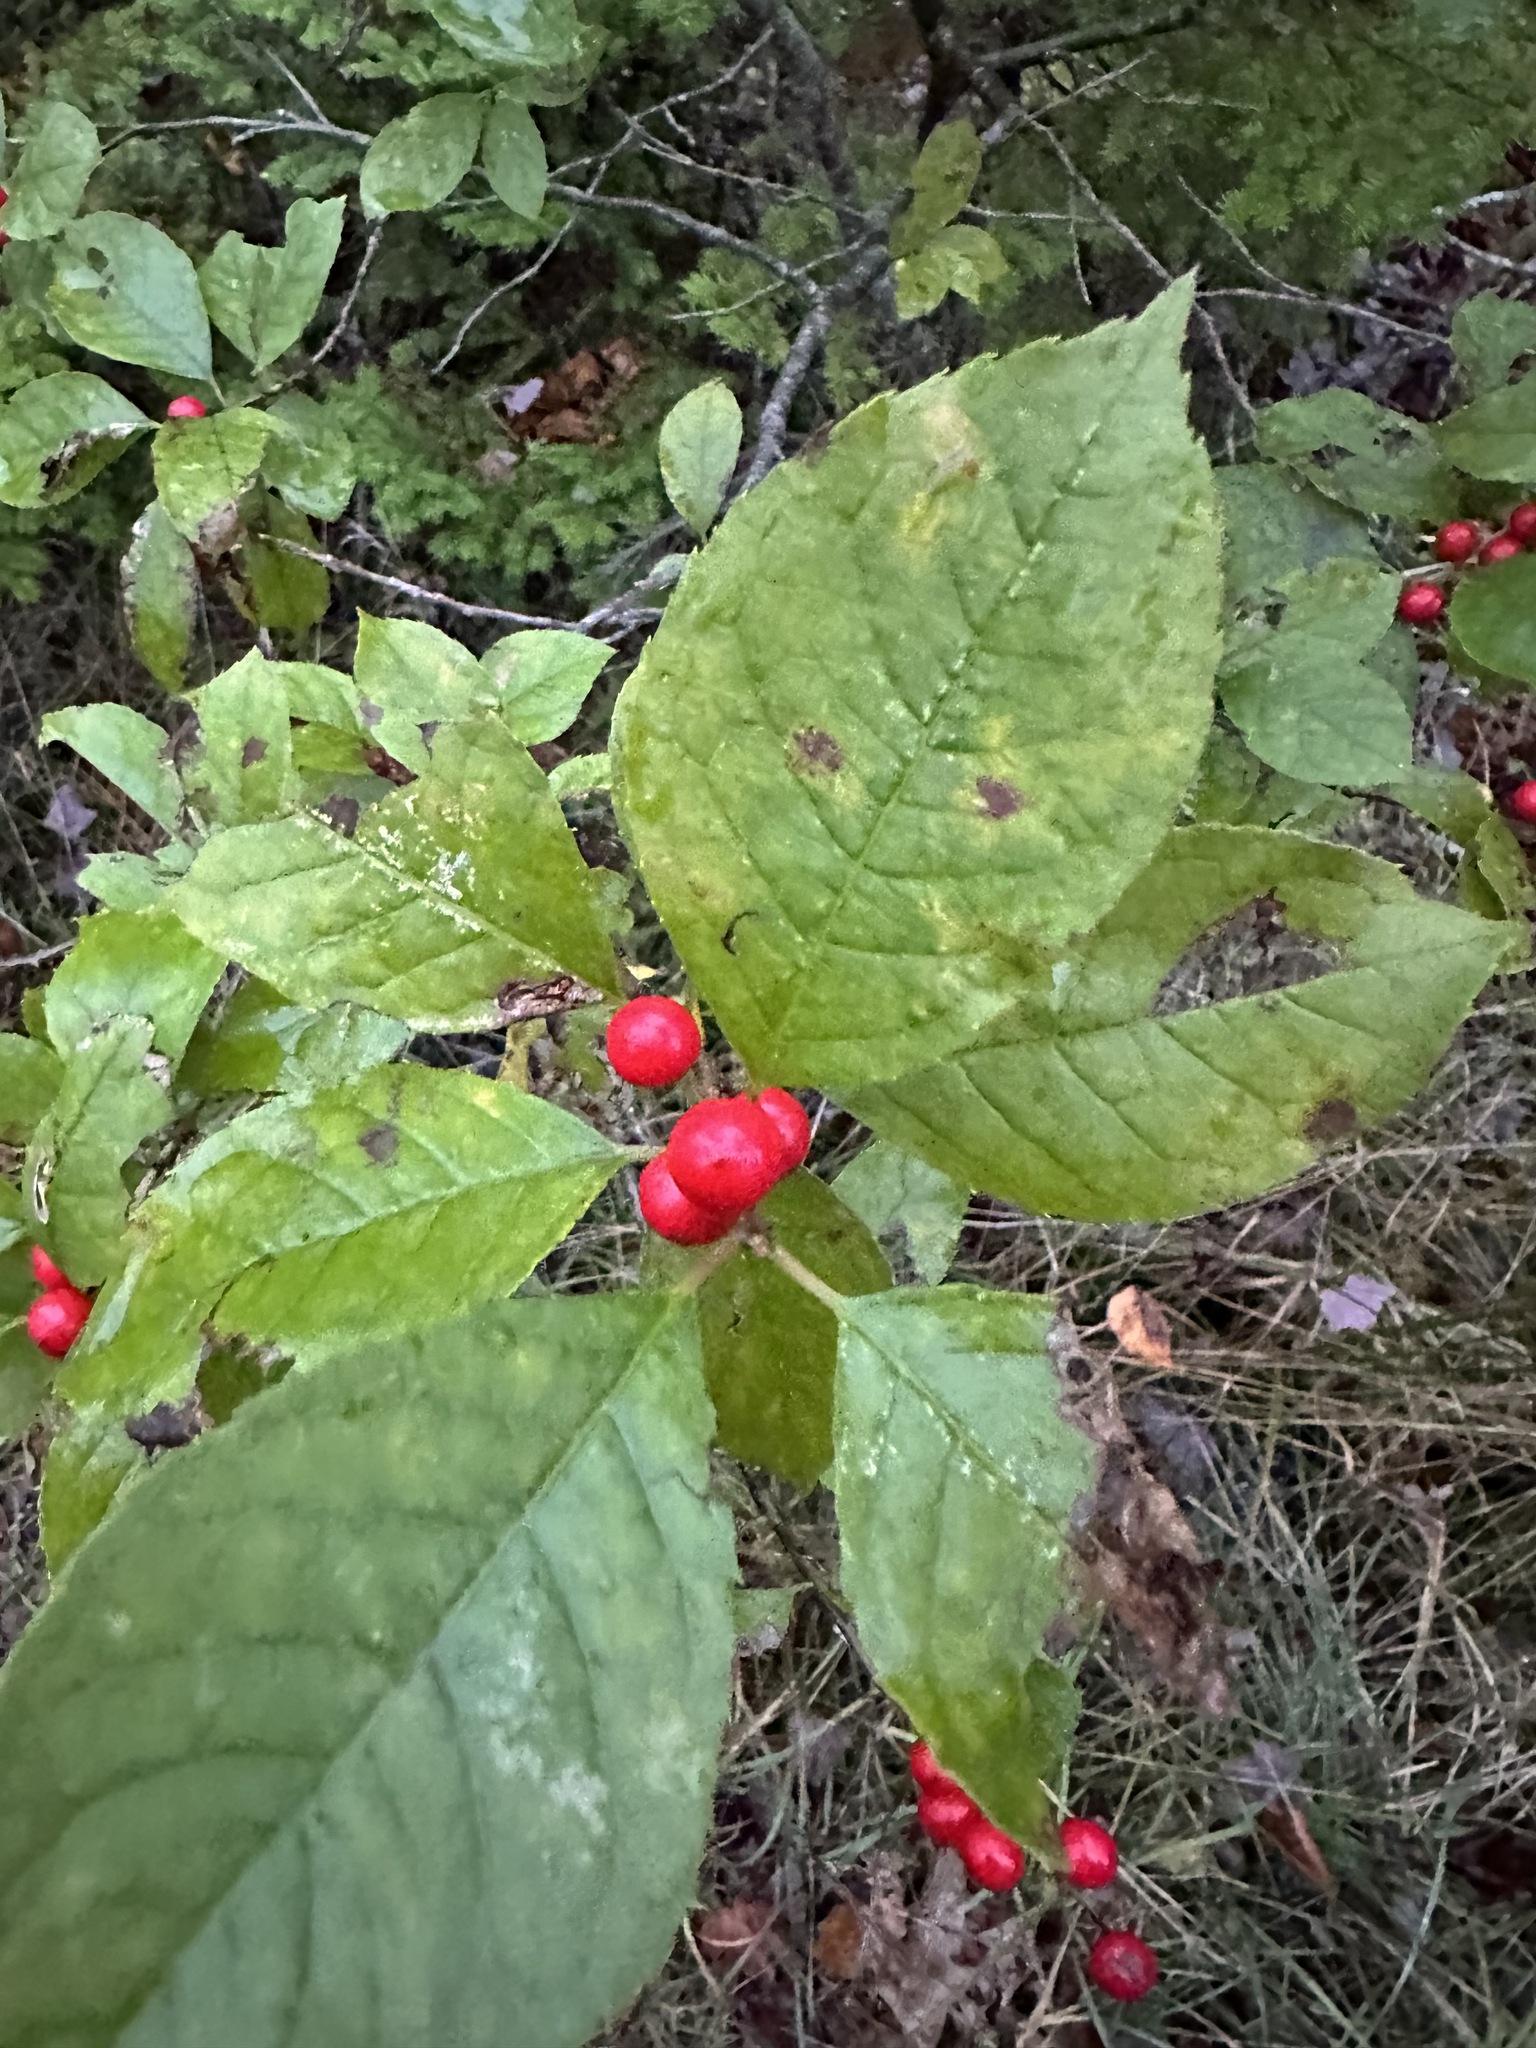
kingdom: Plantae
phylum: Tracheophyta
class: Magnoliopsida
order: Aquifoliales
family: Aquifoliaceae
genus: Ilex
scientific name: Ilex verticillata
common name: Virginia winterberry
